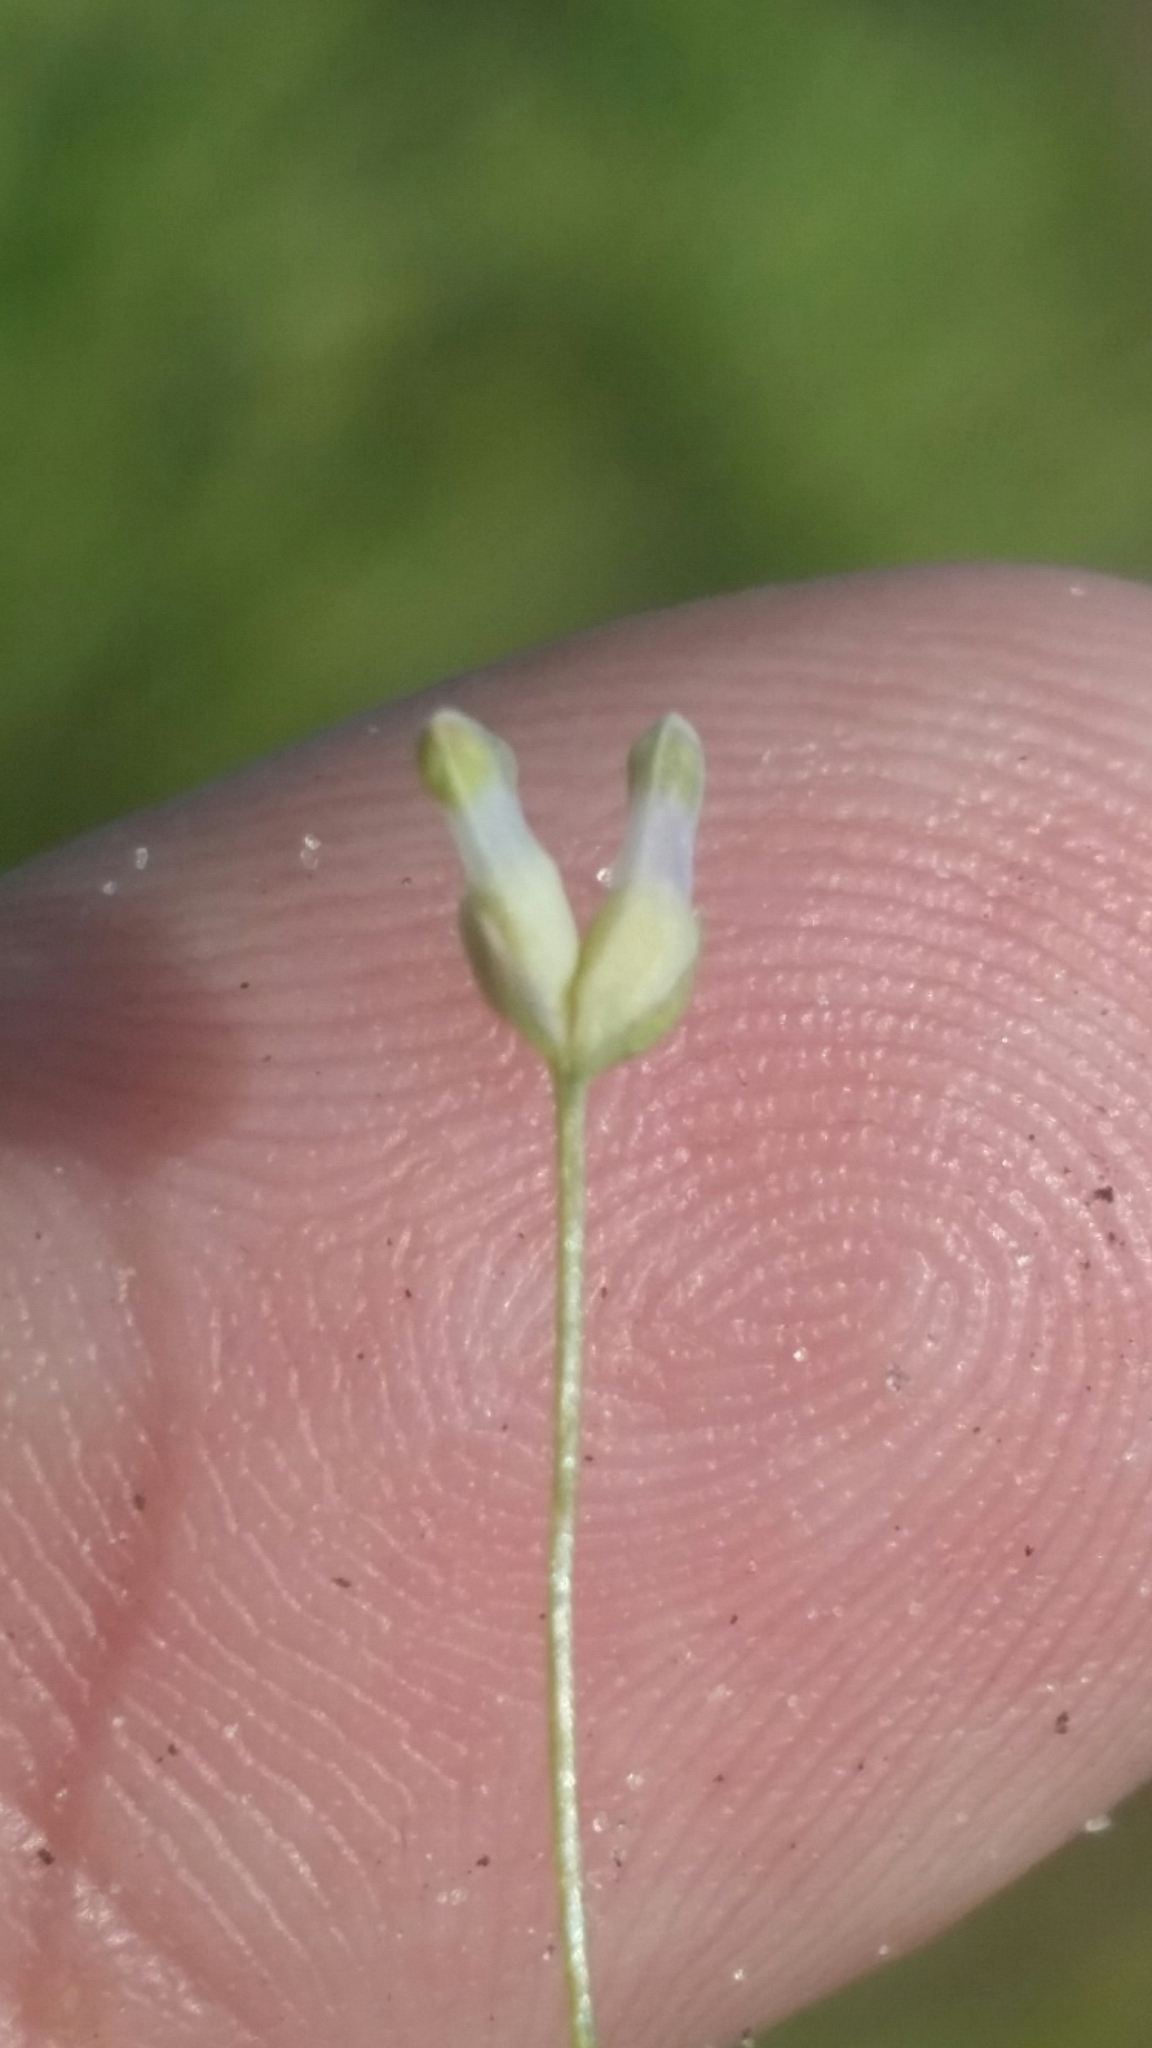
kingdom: Plantae
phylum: Tracheophyta
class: Liliopsida
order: Dioscoreales
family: Burmanniaceae
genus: Burmannia
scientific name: Burmannia capitata
